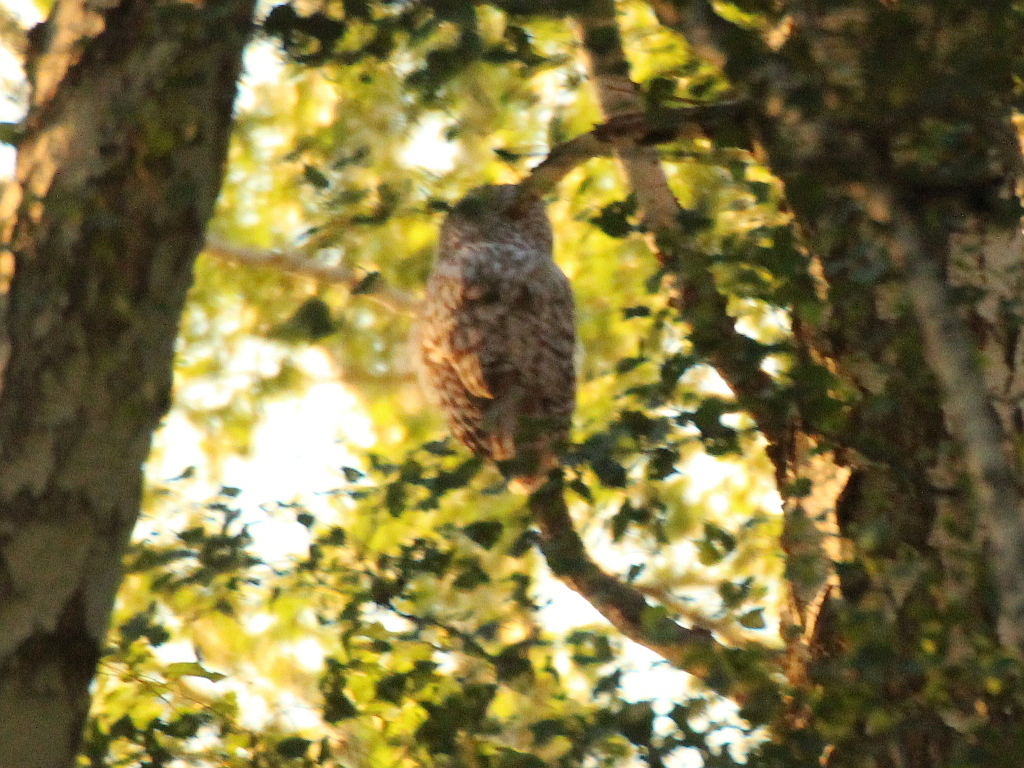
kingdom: Animalia
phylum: Chordata
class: Aves
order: Strigiformes
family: Strigidae
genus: Strix
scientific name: Strix uralensis
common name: Ural owl
